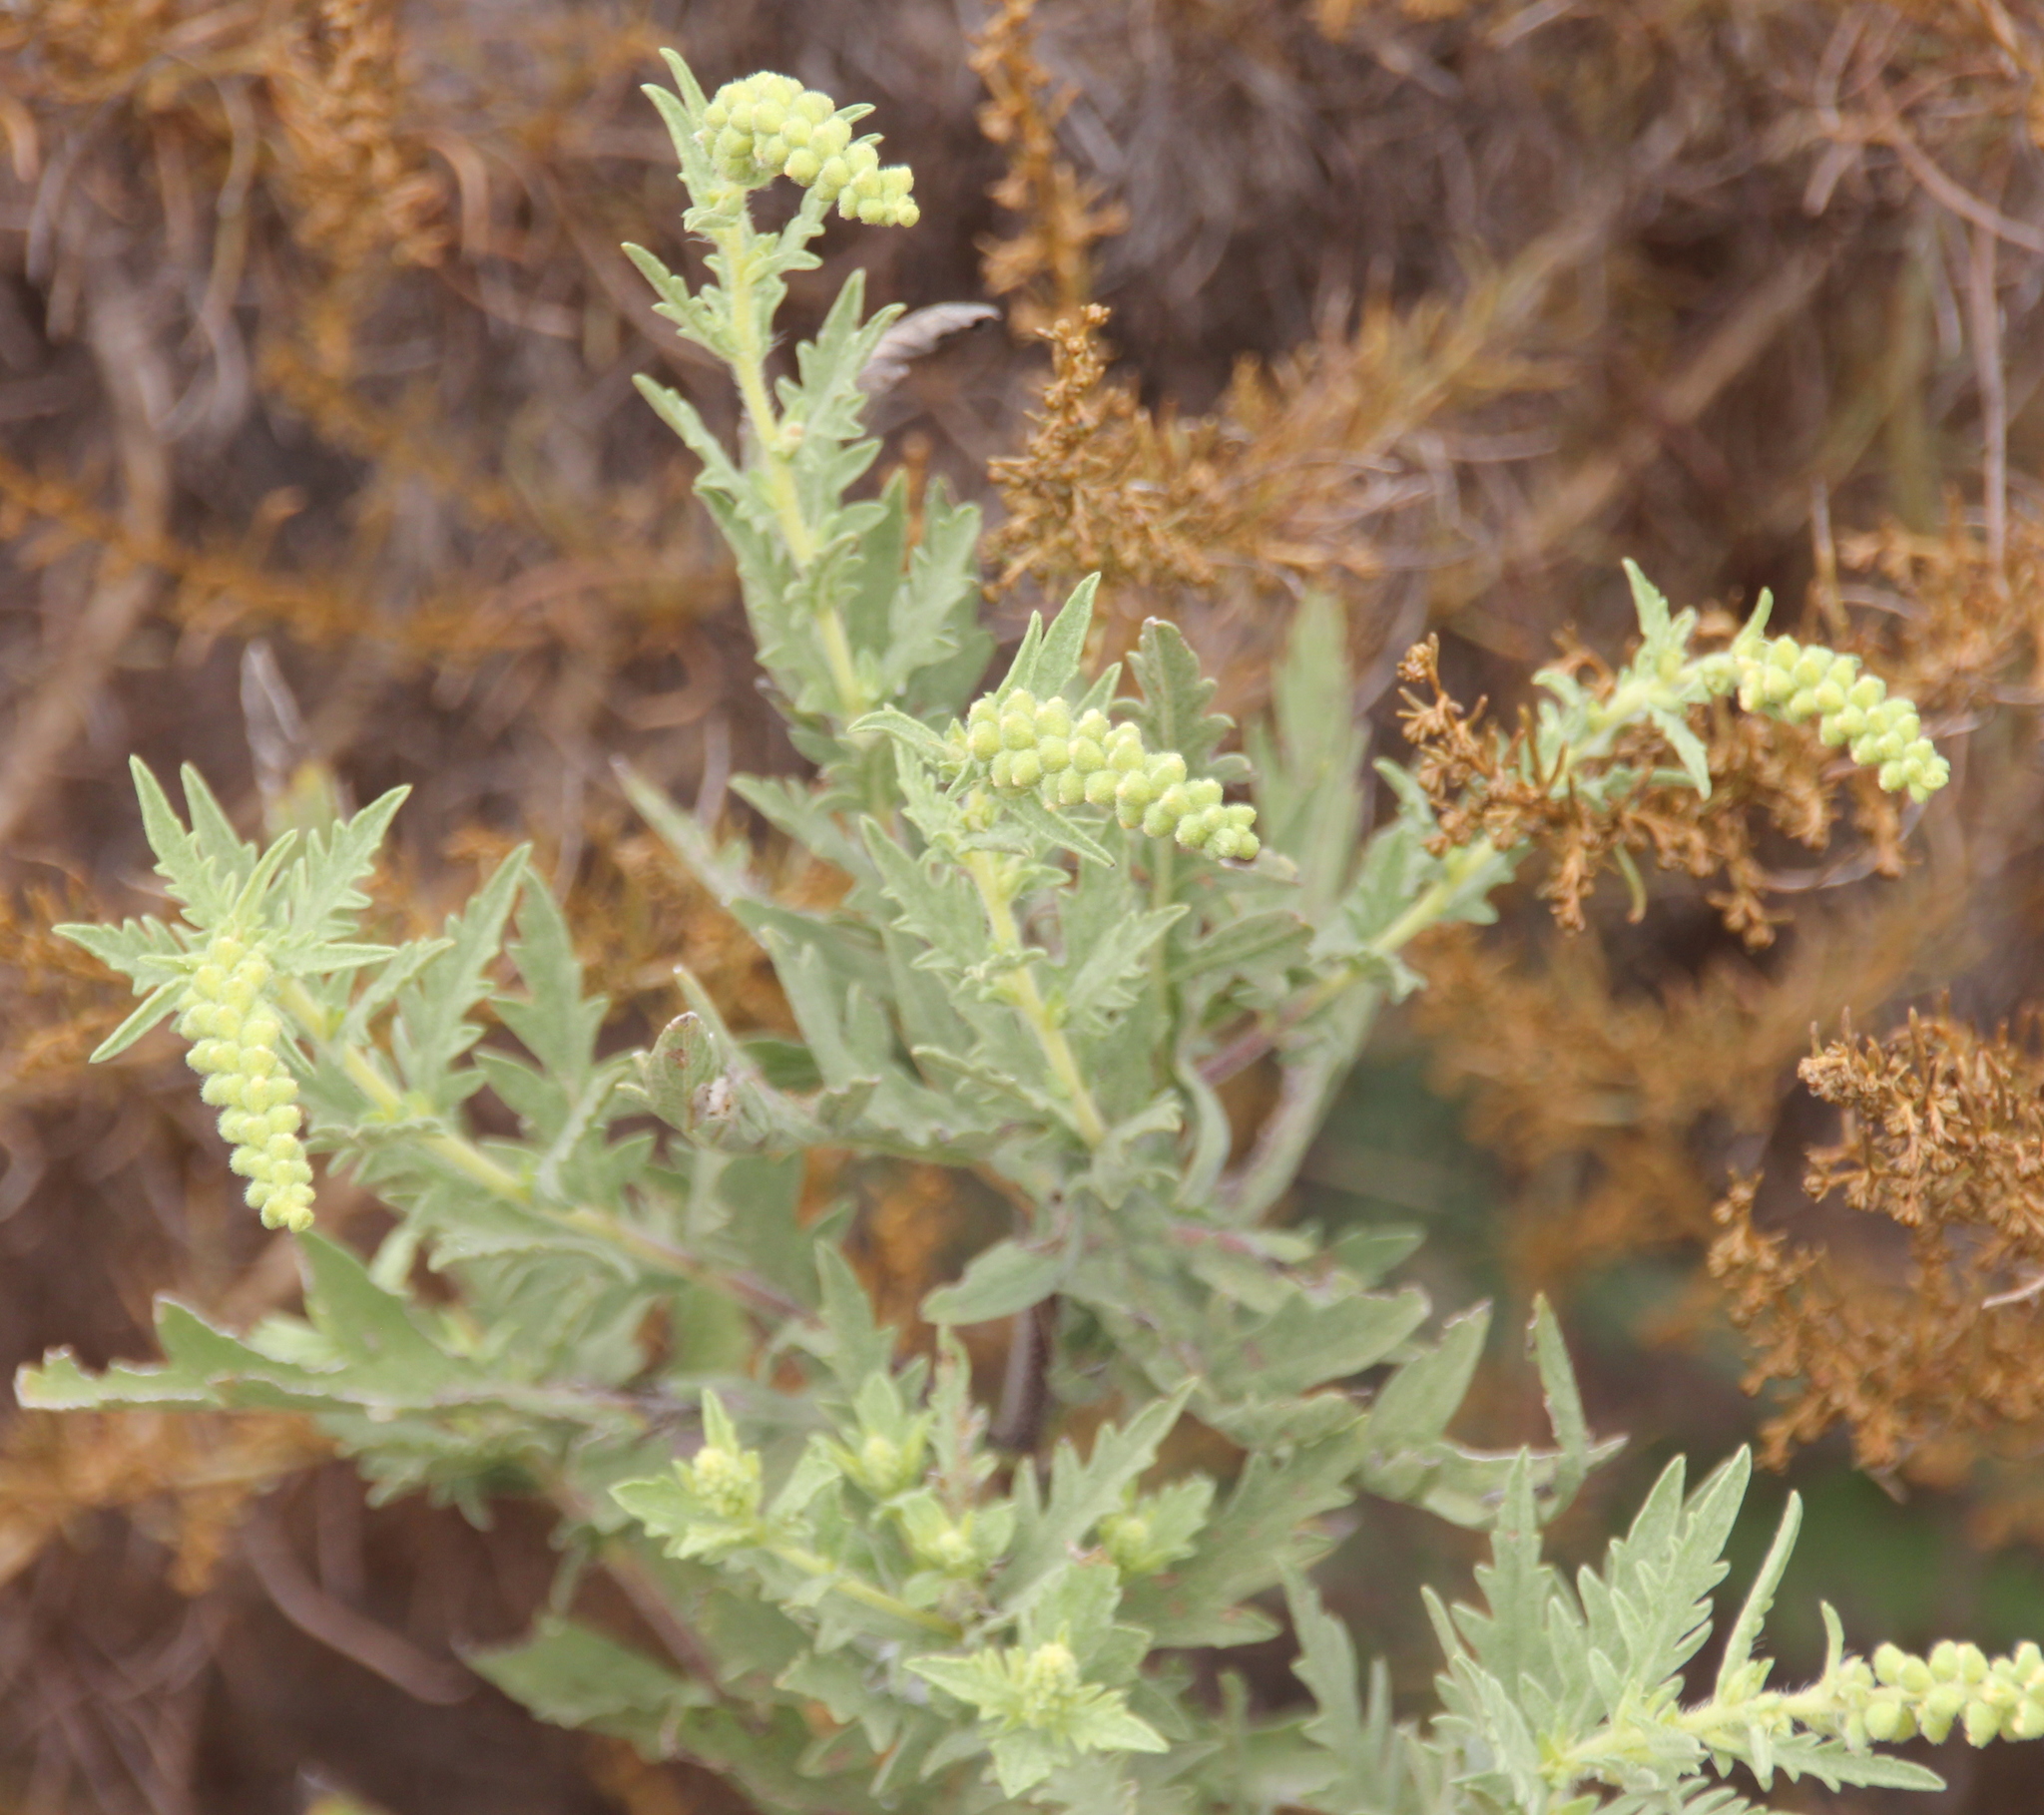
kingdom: Plantae
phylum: Tracheophyta
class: Magnoliopsida
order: Asterales
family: Asteraceae
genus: Ambrosia
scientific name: Ambrosia psilostachya
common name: Perennial ragweed
